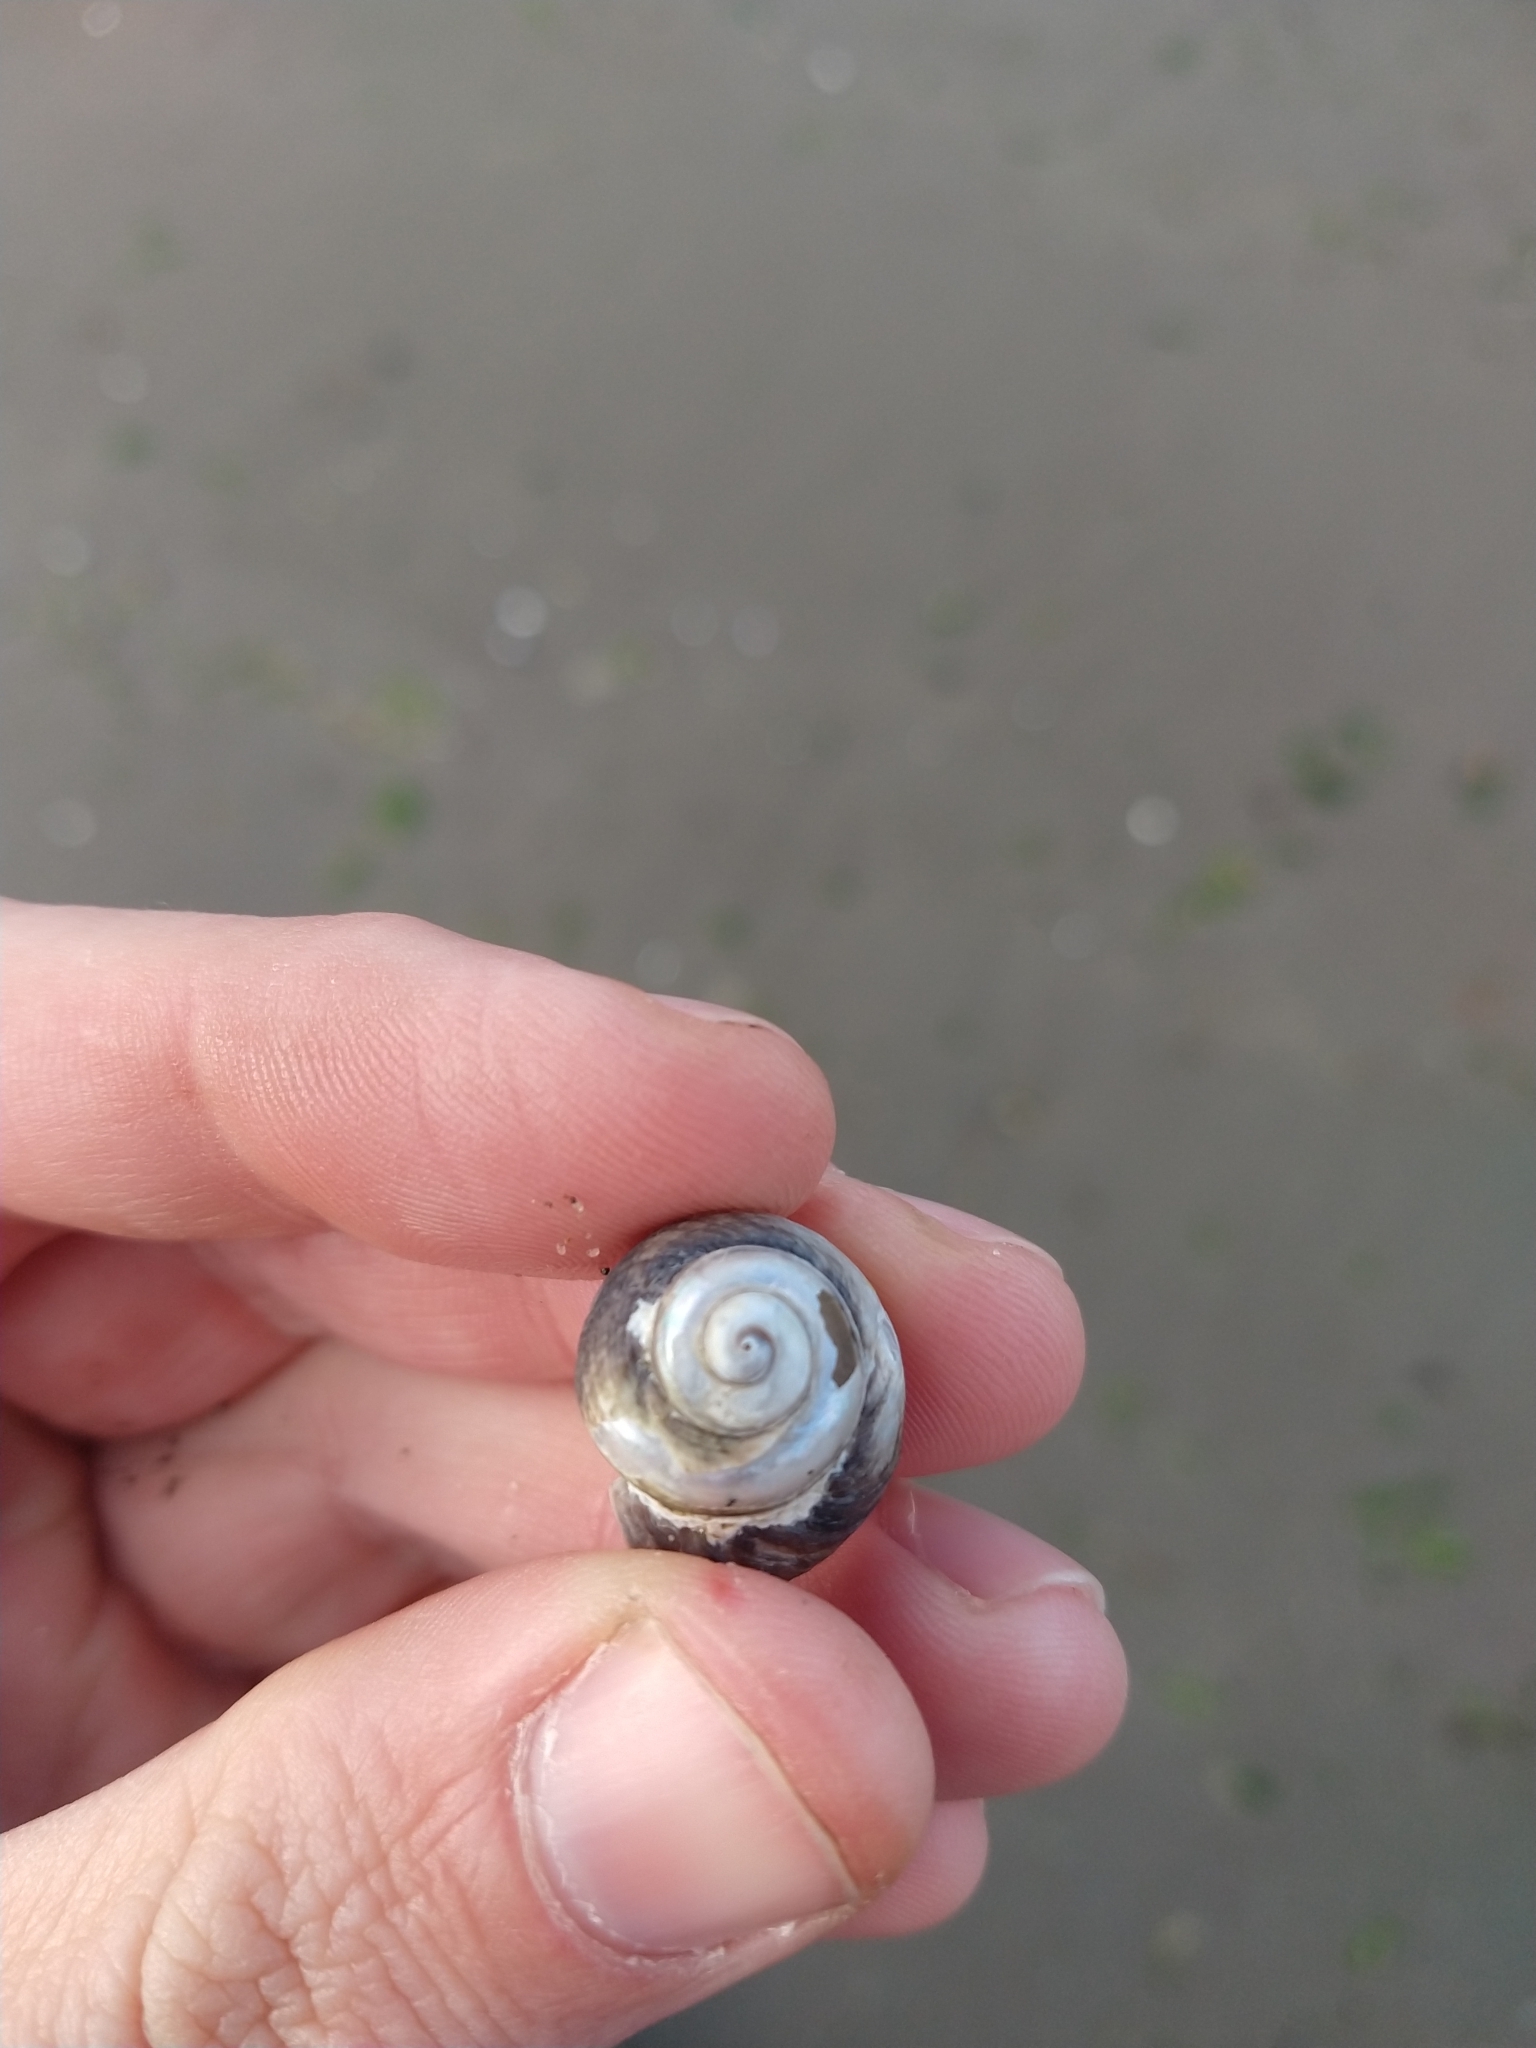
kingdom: Animalia
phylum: Mollusca
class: Gastropoda
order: Neogastropoda
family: Buccinanopsidae
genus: Buccinastrum
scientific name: Buccinastrum deforme
